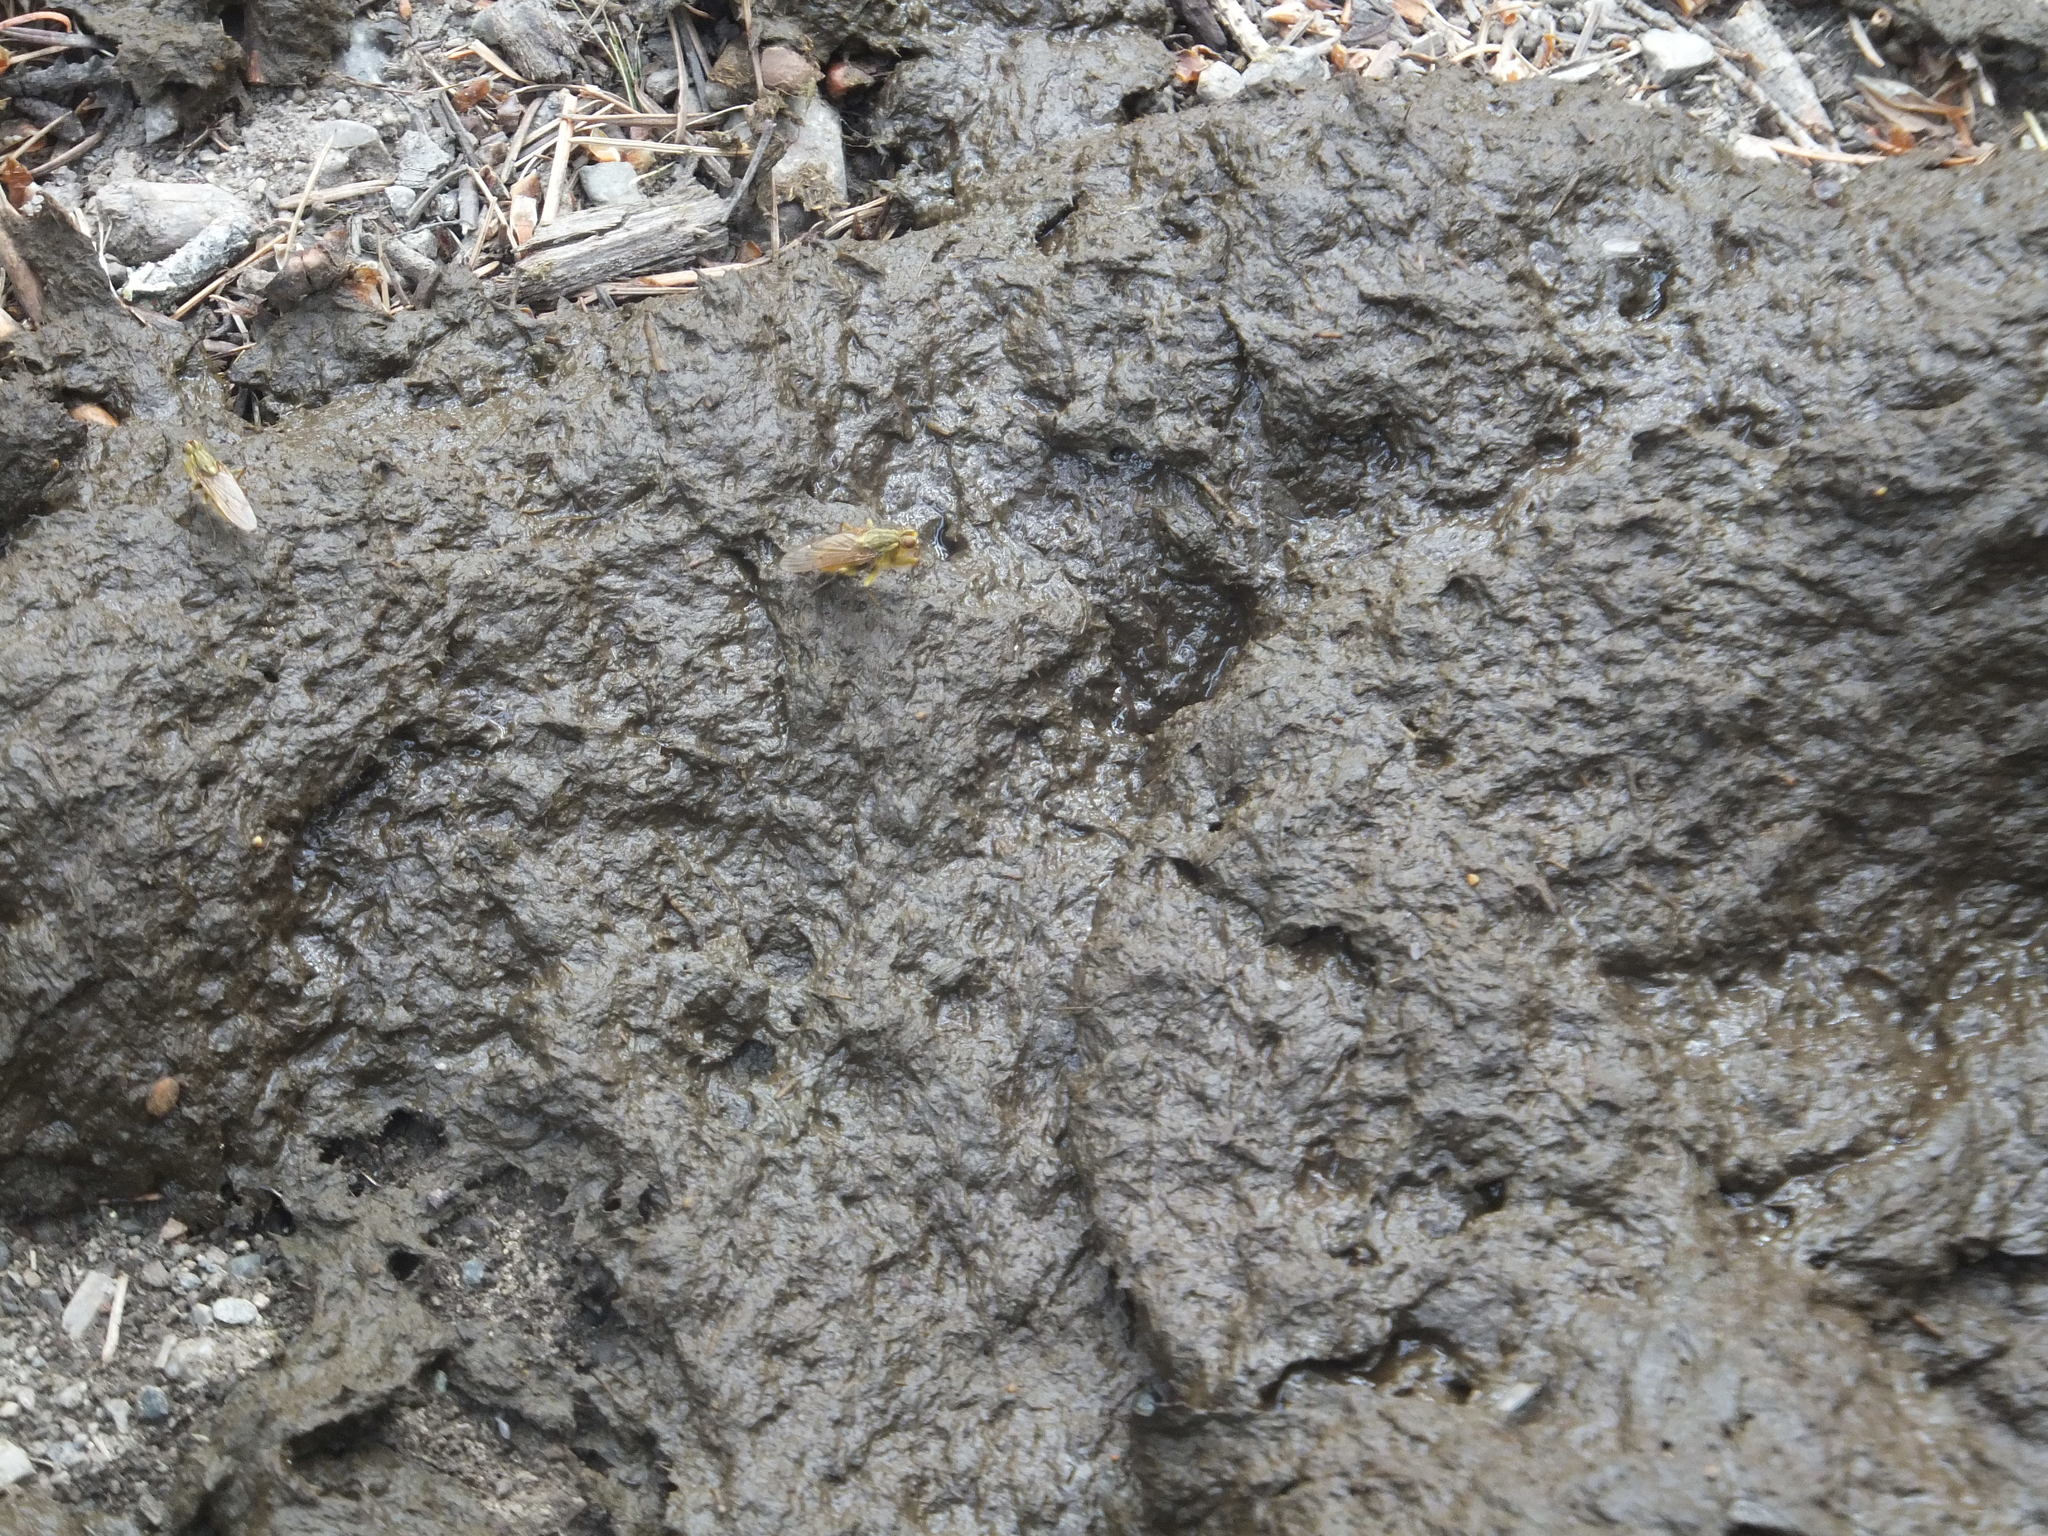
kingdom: Animalia
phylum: Arthropoda
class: Insecta
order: Diptera
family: Scathophagidae
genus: Scathophaga
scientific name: Scathophaga stercoraria
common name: Yellow dung fly
